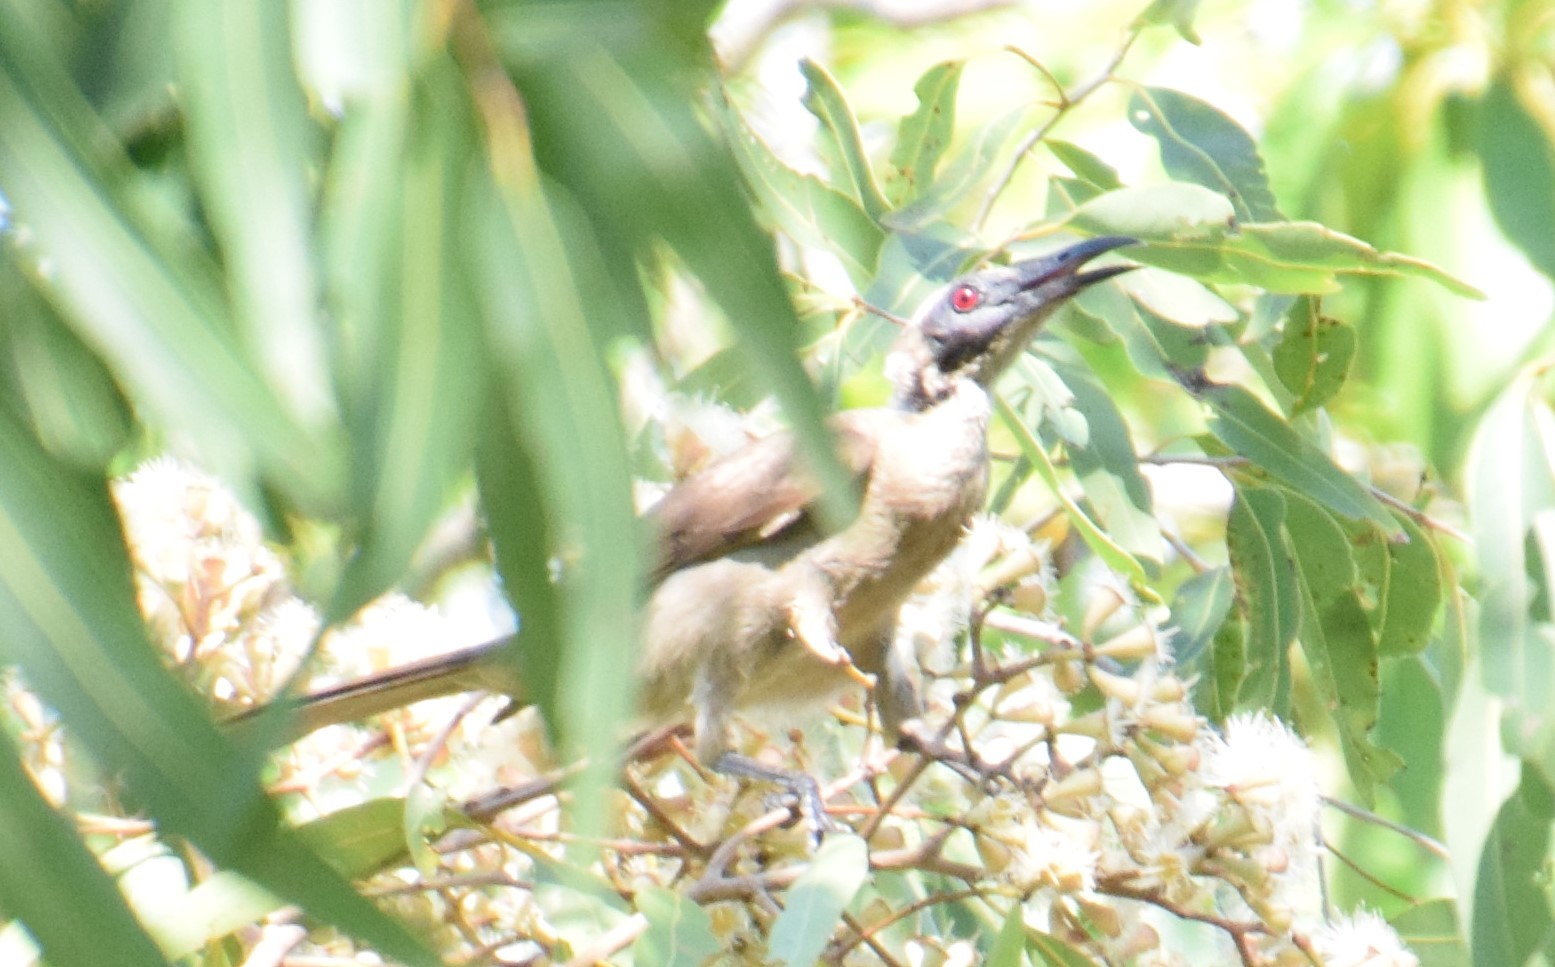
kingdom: Animalia
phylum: Chordata
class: Aves
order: Passeriformes
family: Meliphagidae
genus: Philemon
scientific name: Philemon buceroides
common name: Helmeted friarbird
